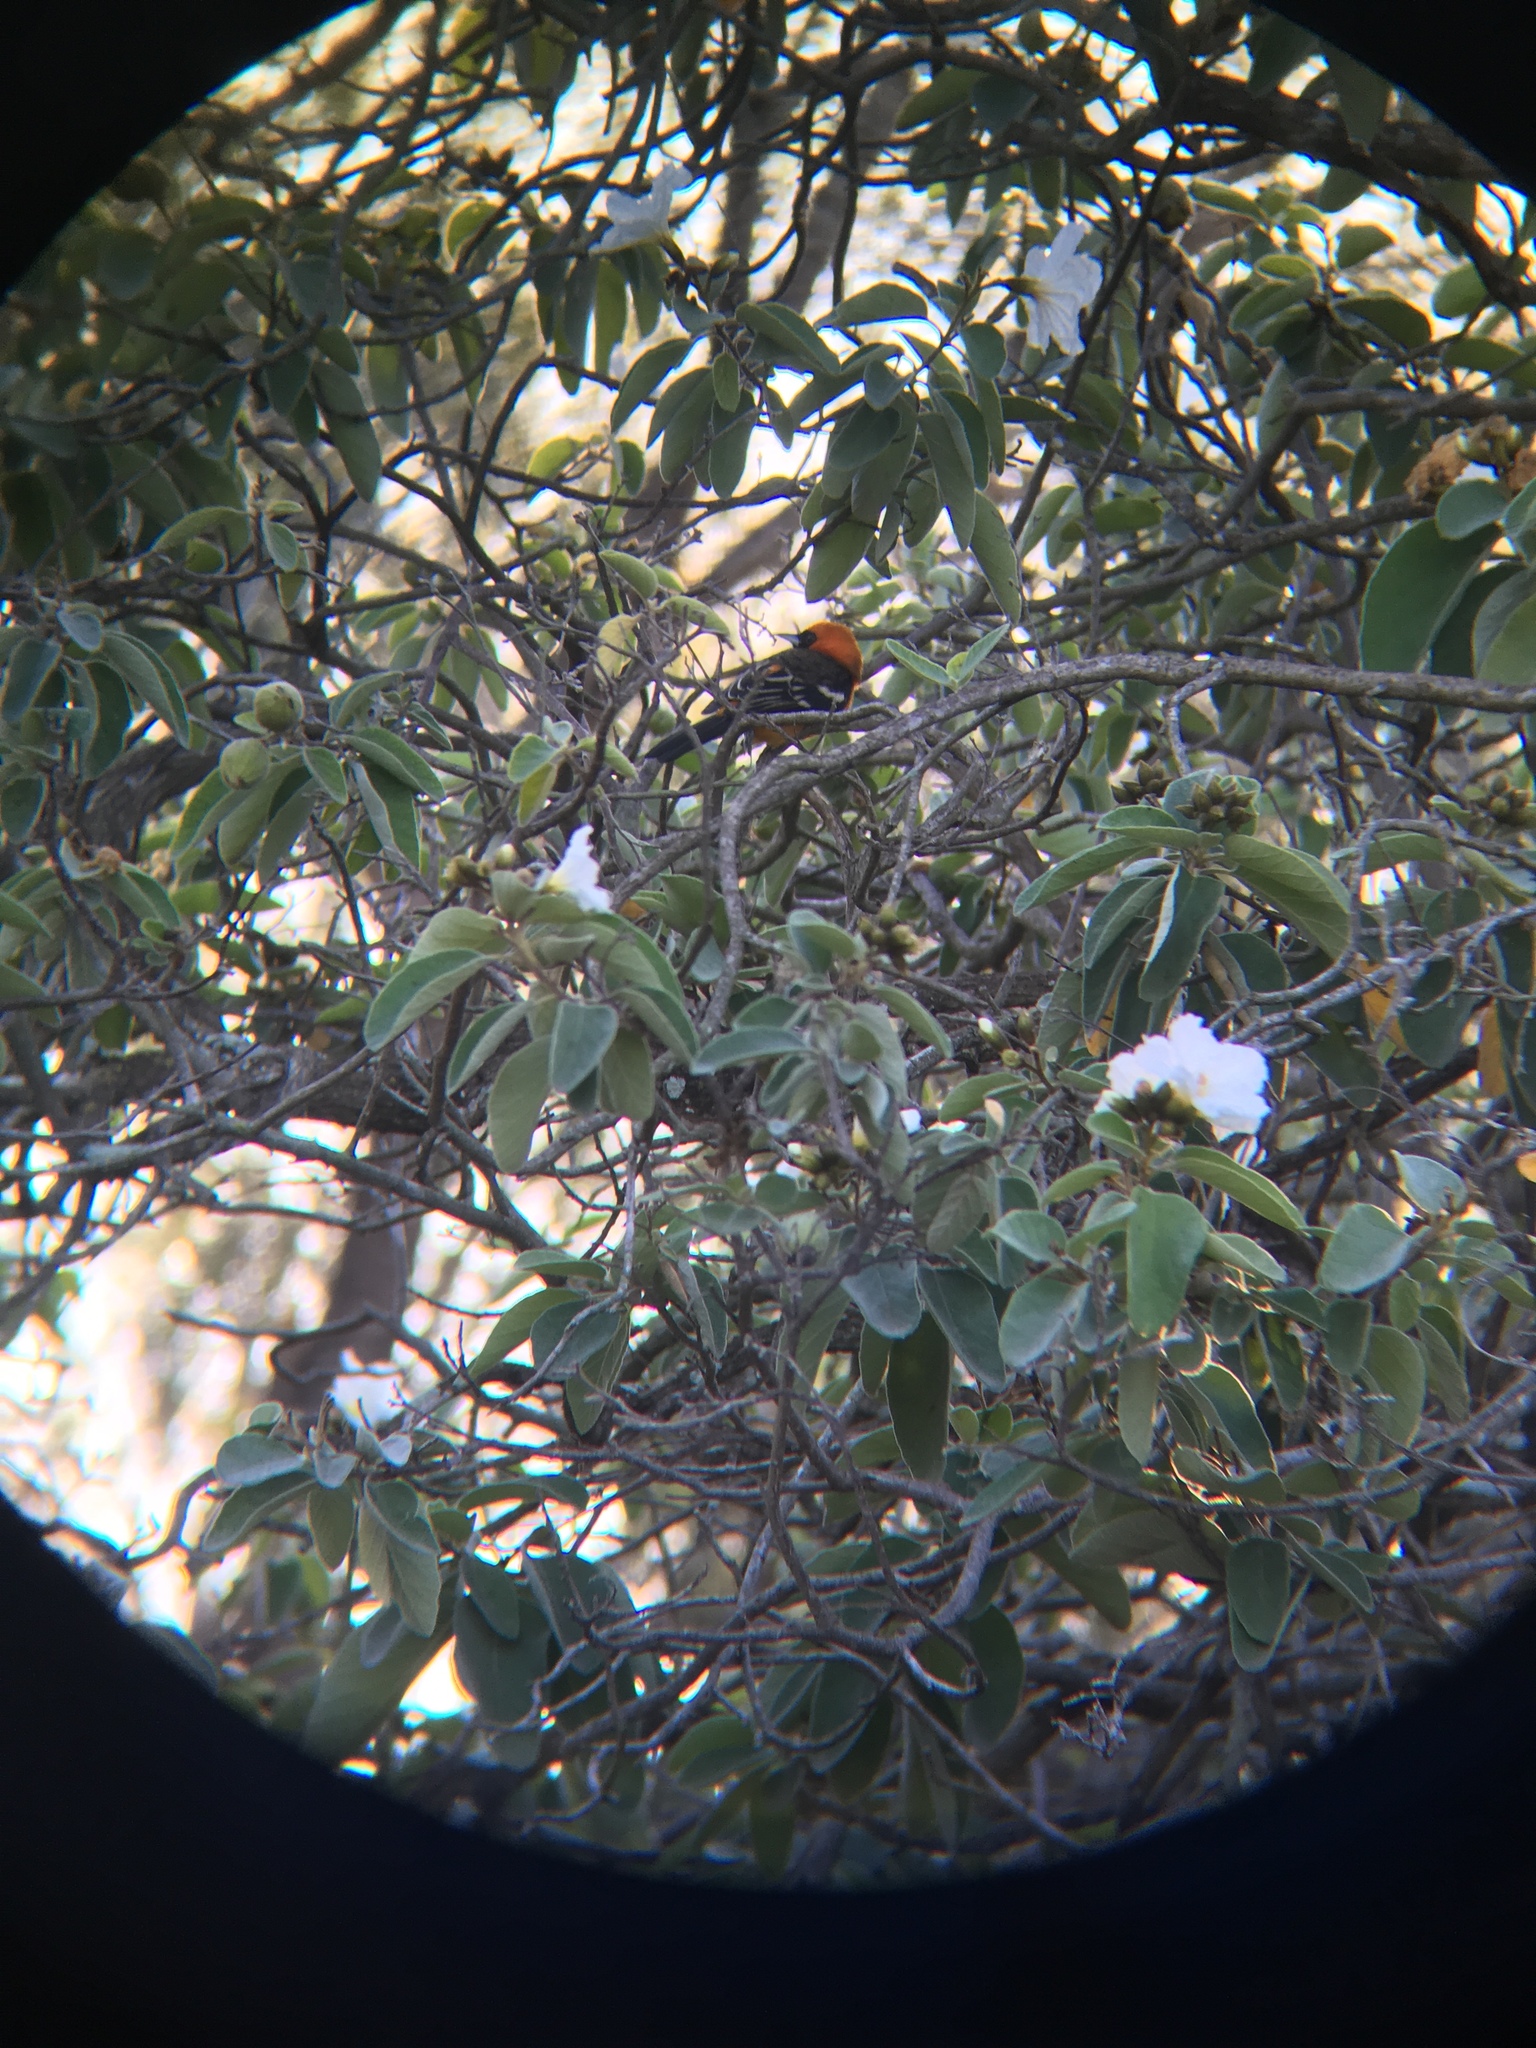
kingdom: Animalia
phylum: Chordata
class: Aves
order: Passeriformes
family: Icteridae
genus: Icterus
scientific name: Icterus cucullatus
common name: Hooded oriole
